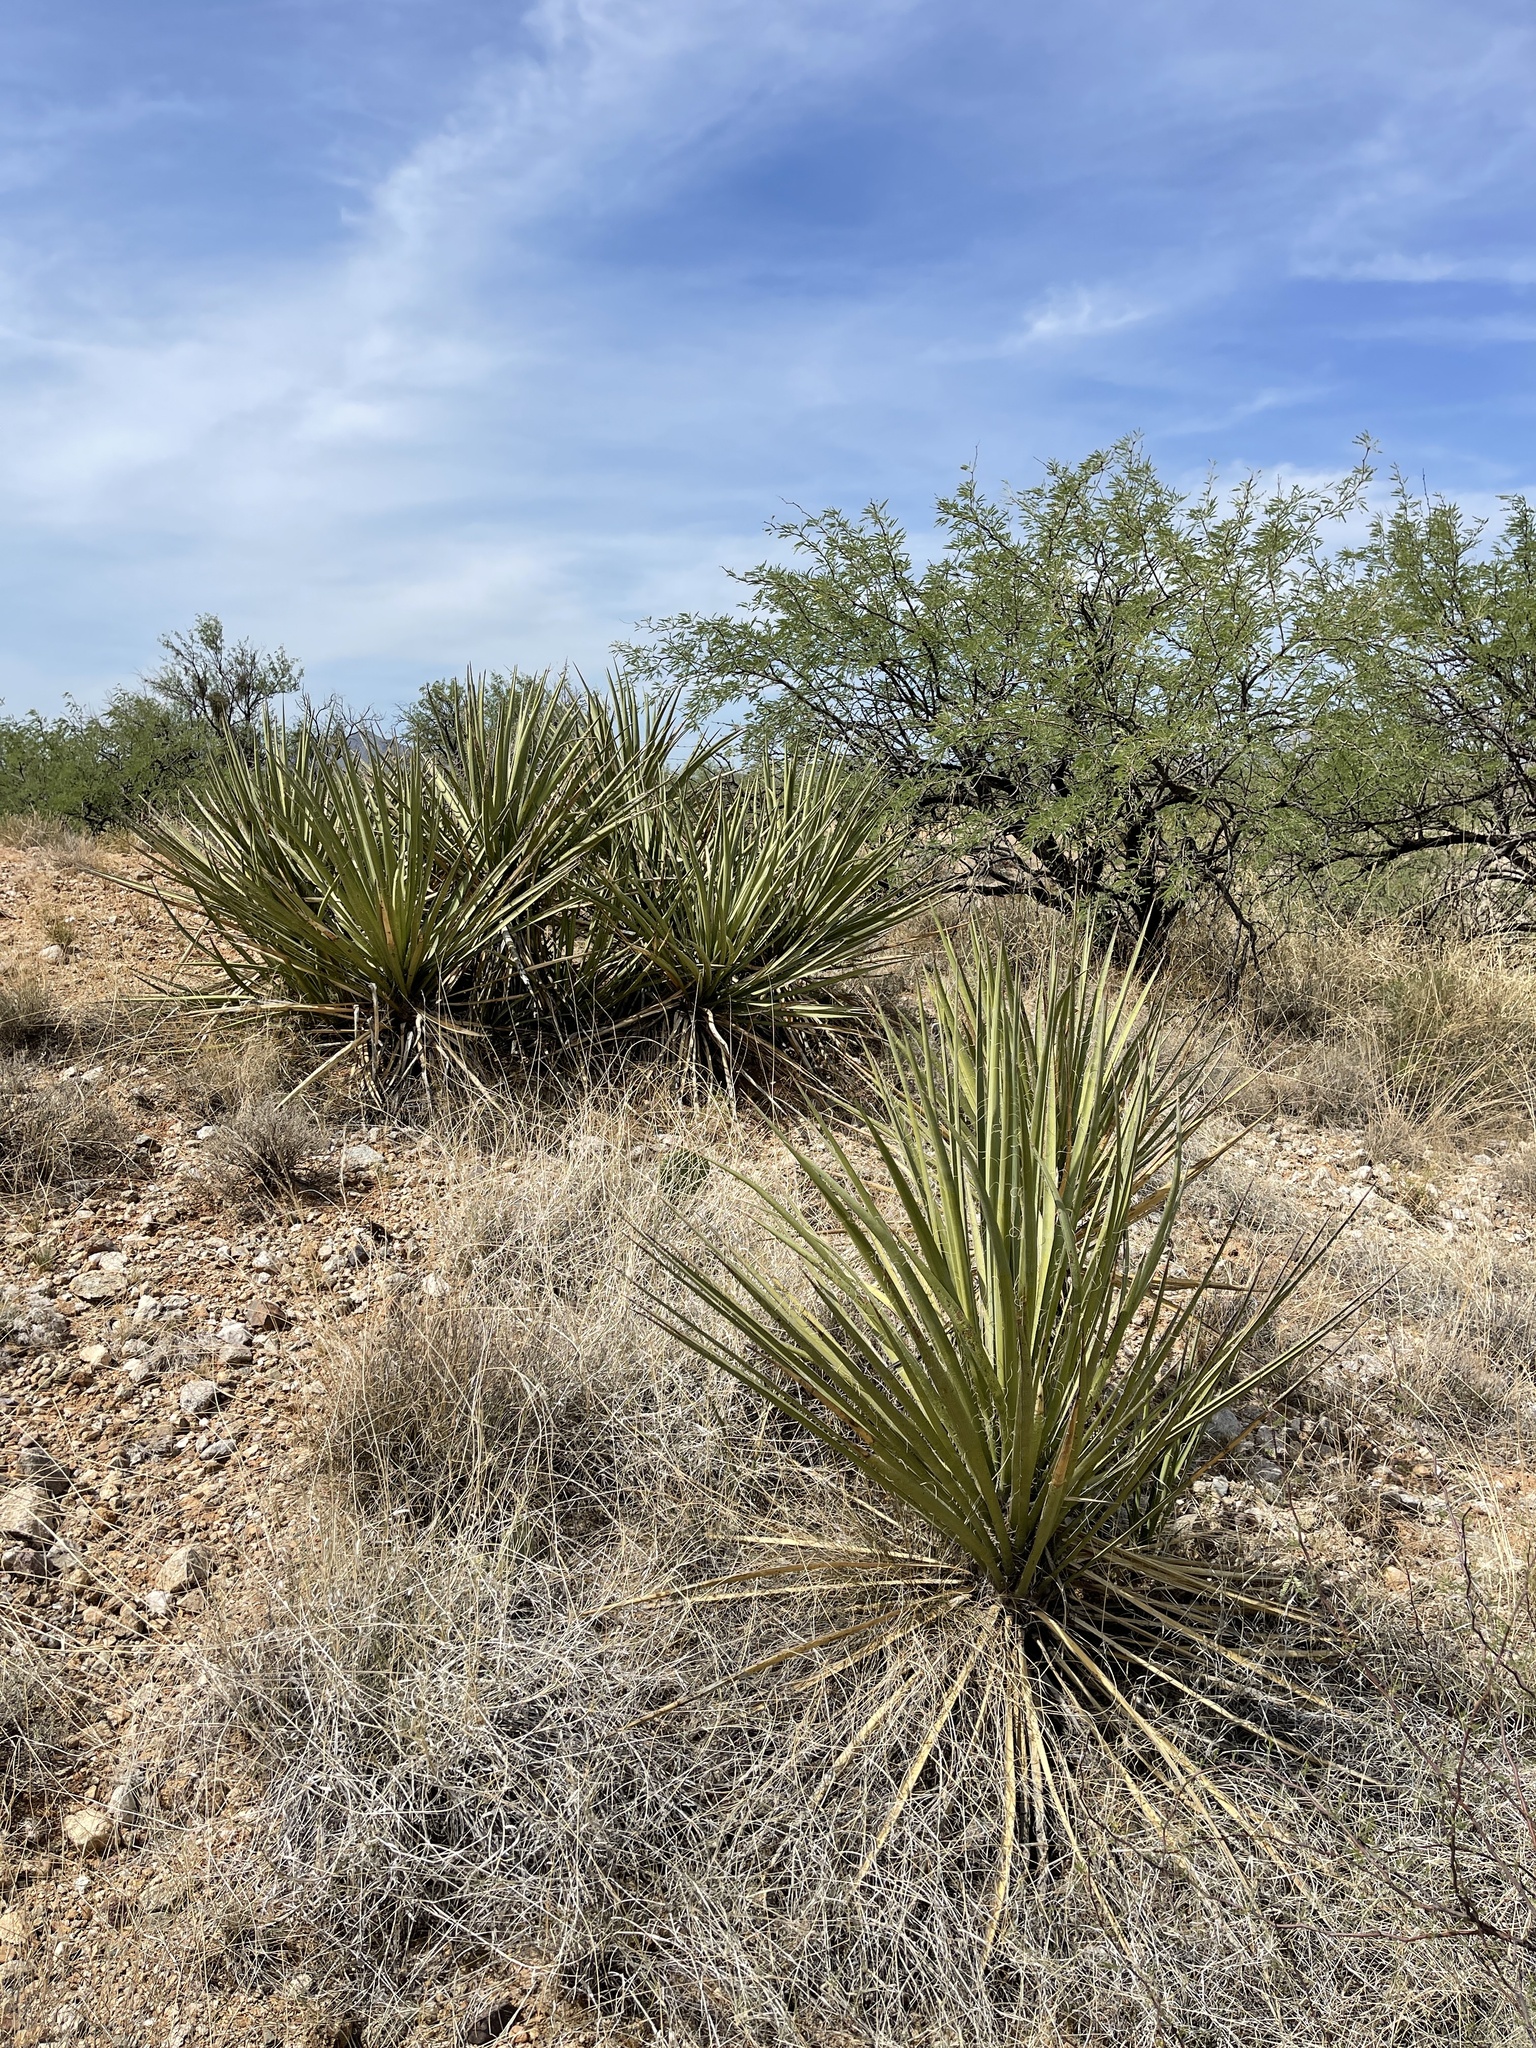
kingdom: Plantae
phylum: Tracheophyta
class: Liliopsida
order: Asparagales
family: Asparagaceae
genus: Yucca
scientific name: Yucca baccata
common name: Banana yucca
